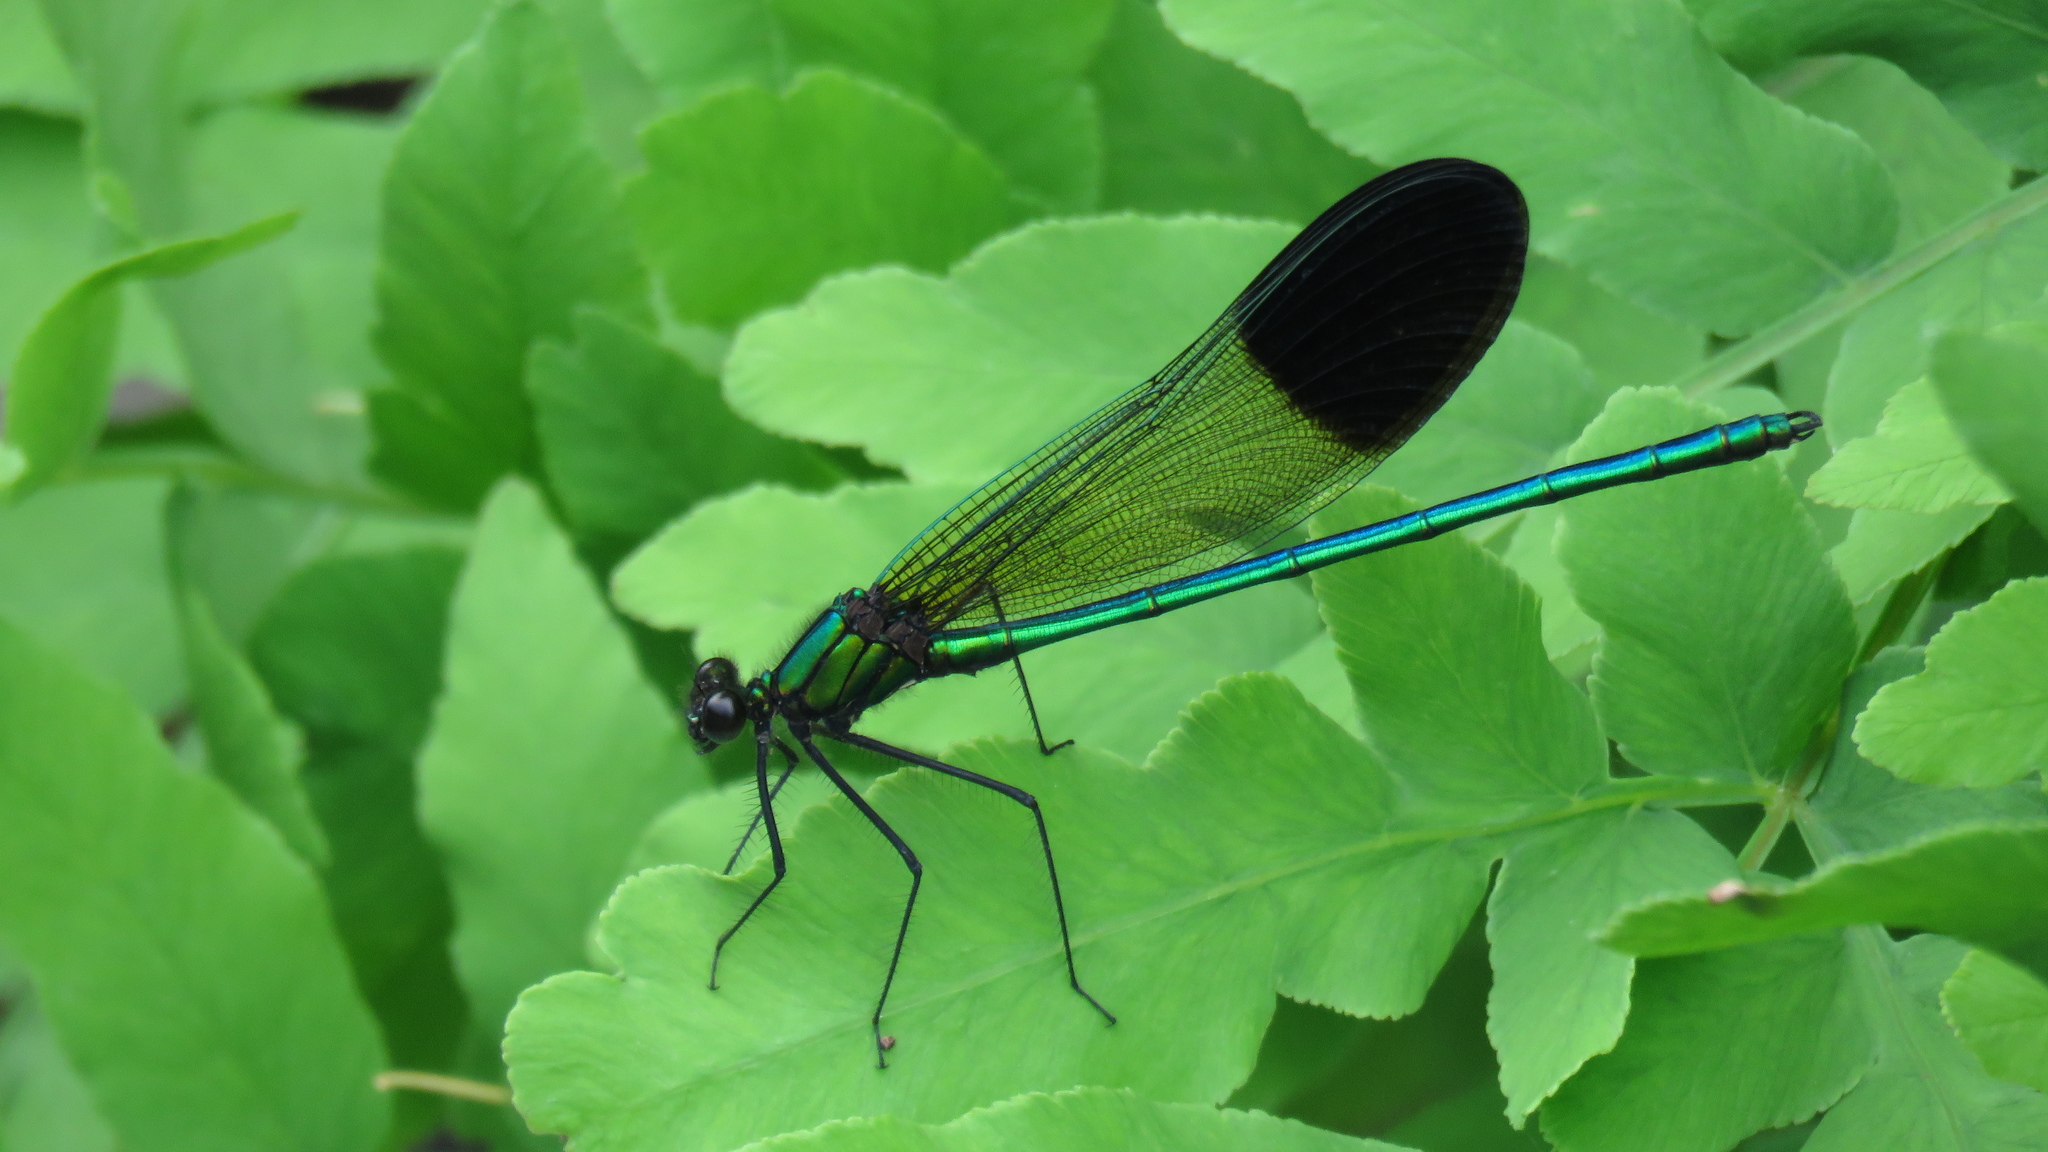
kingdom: Animalia
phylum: Arthropoda
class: Insecta
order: Odonata
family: Calopterygidae
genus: Calopteryx
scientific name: Calopteryx aequabilis
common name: River jewelwing
